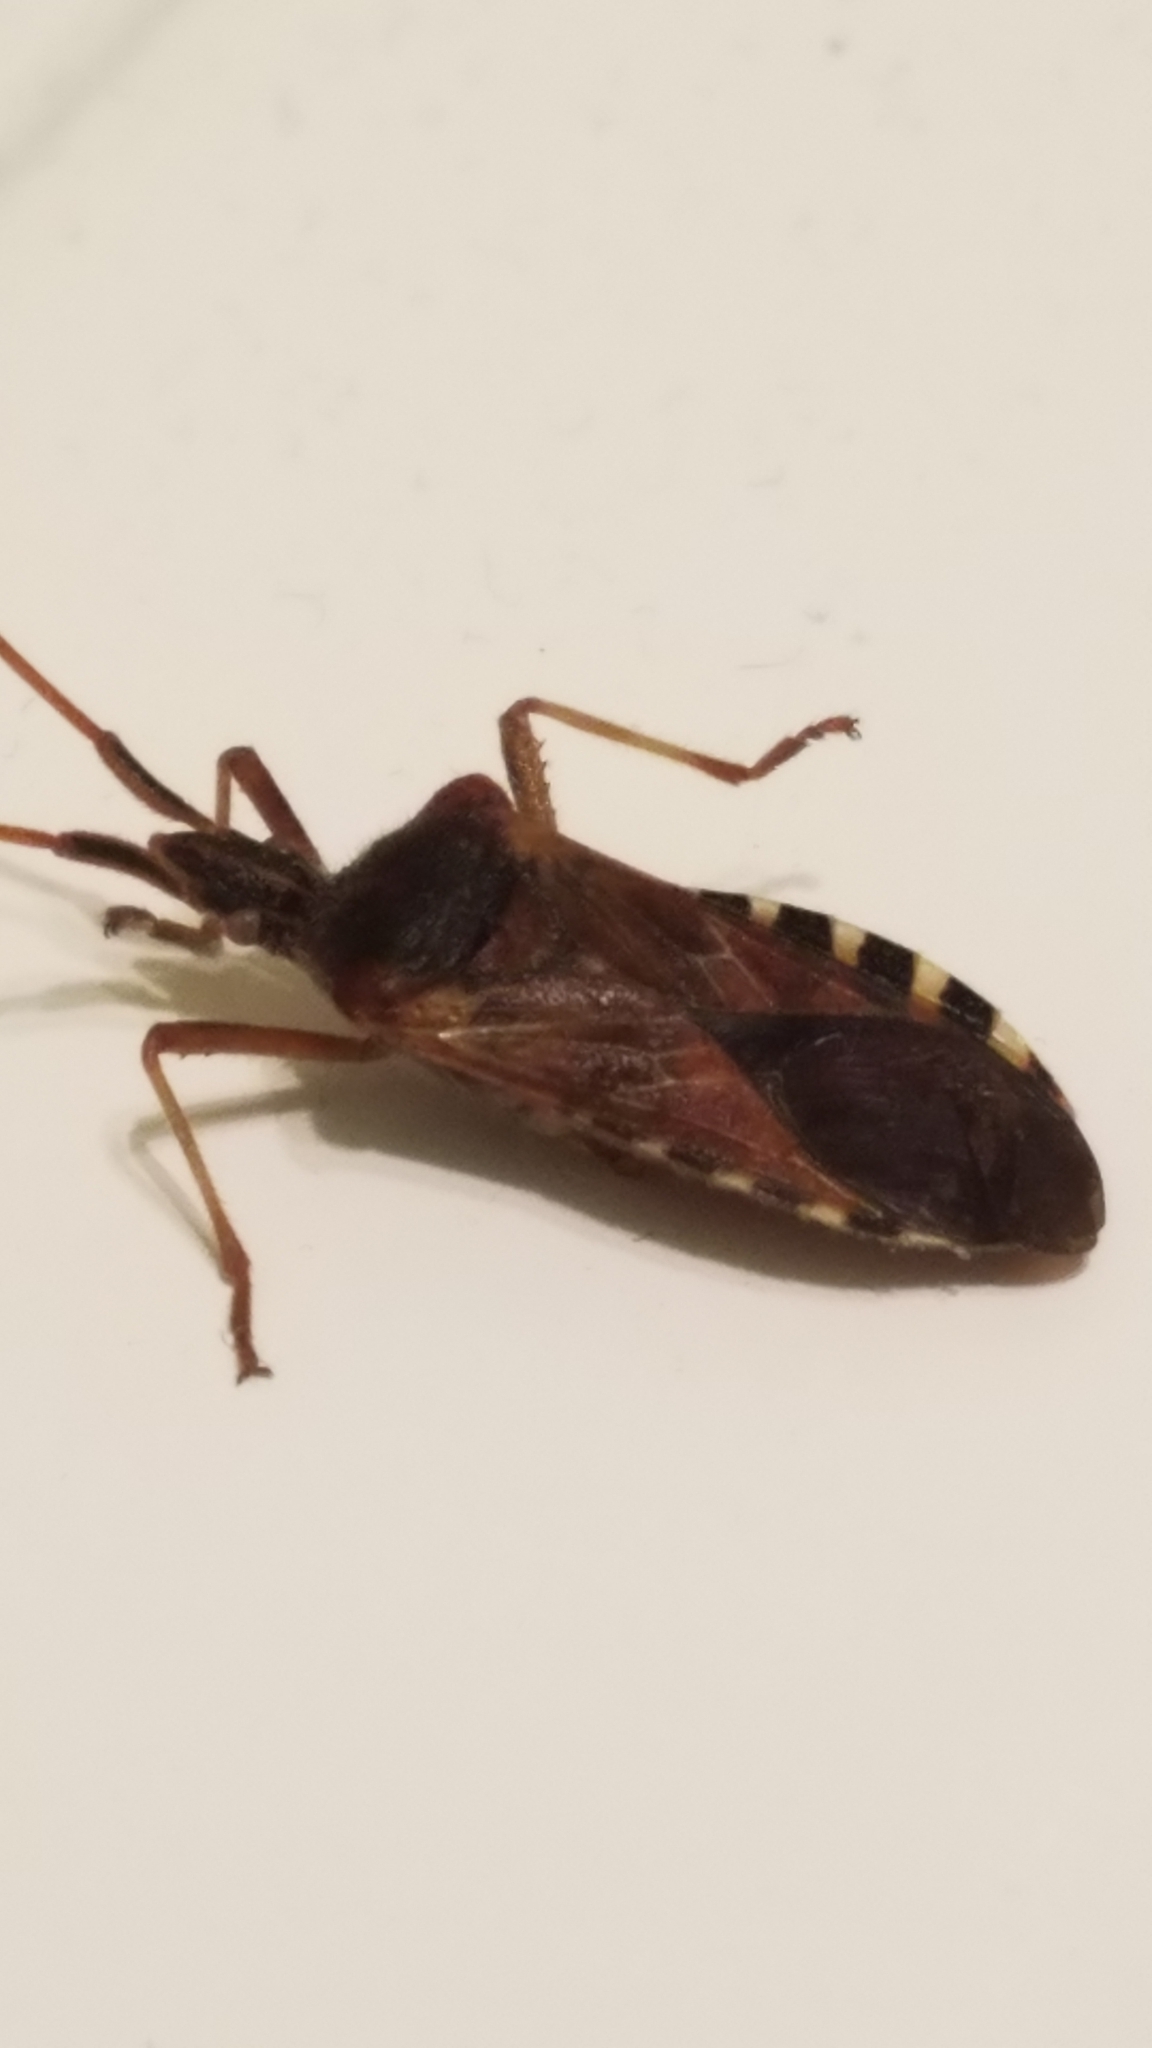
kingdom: Animalia
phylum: Arthropoda
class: Insecta
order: Hemiptera
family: Coreidae
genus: Leptoglossus
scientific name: Leptoglossus occidentalis
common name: Western conifer-seed bug
